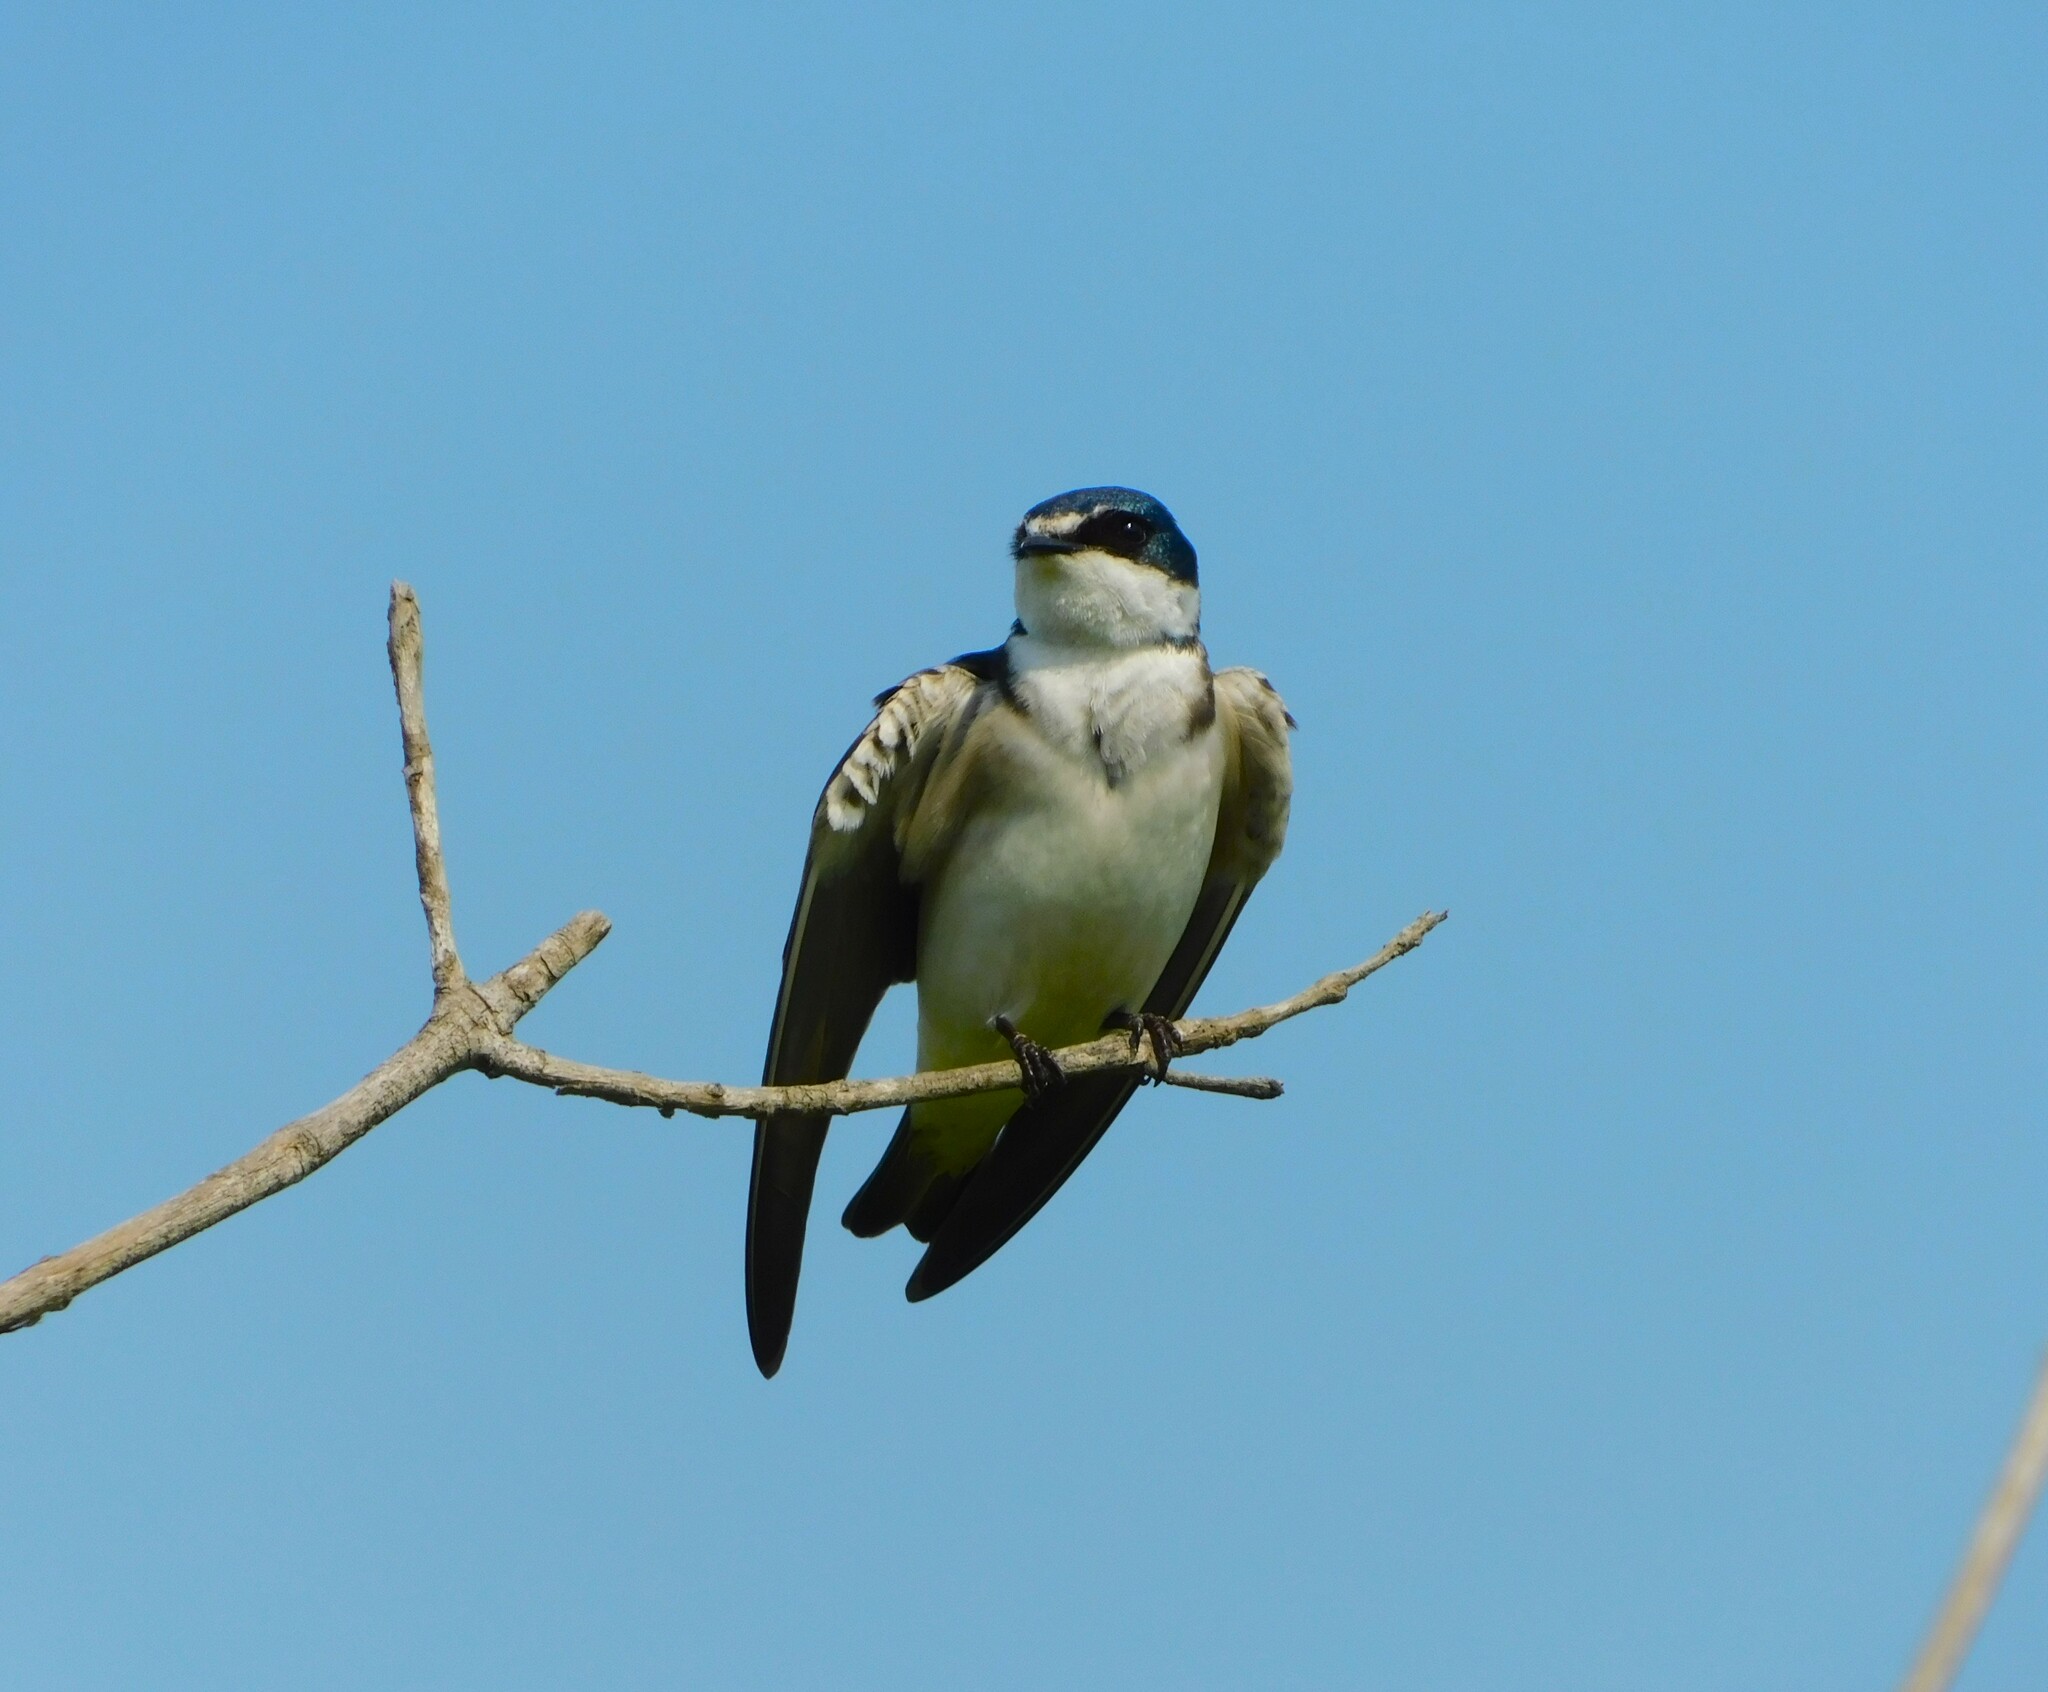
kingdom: Animalia
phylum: Chordata
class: Aves
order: Passeriformes
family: Hirundinidae
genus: Tachycineta
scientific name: Tachycineta leucorrhoa
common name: White-rumped swallow
